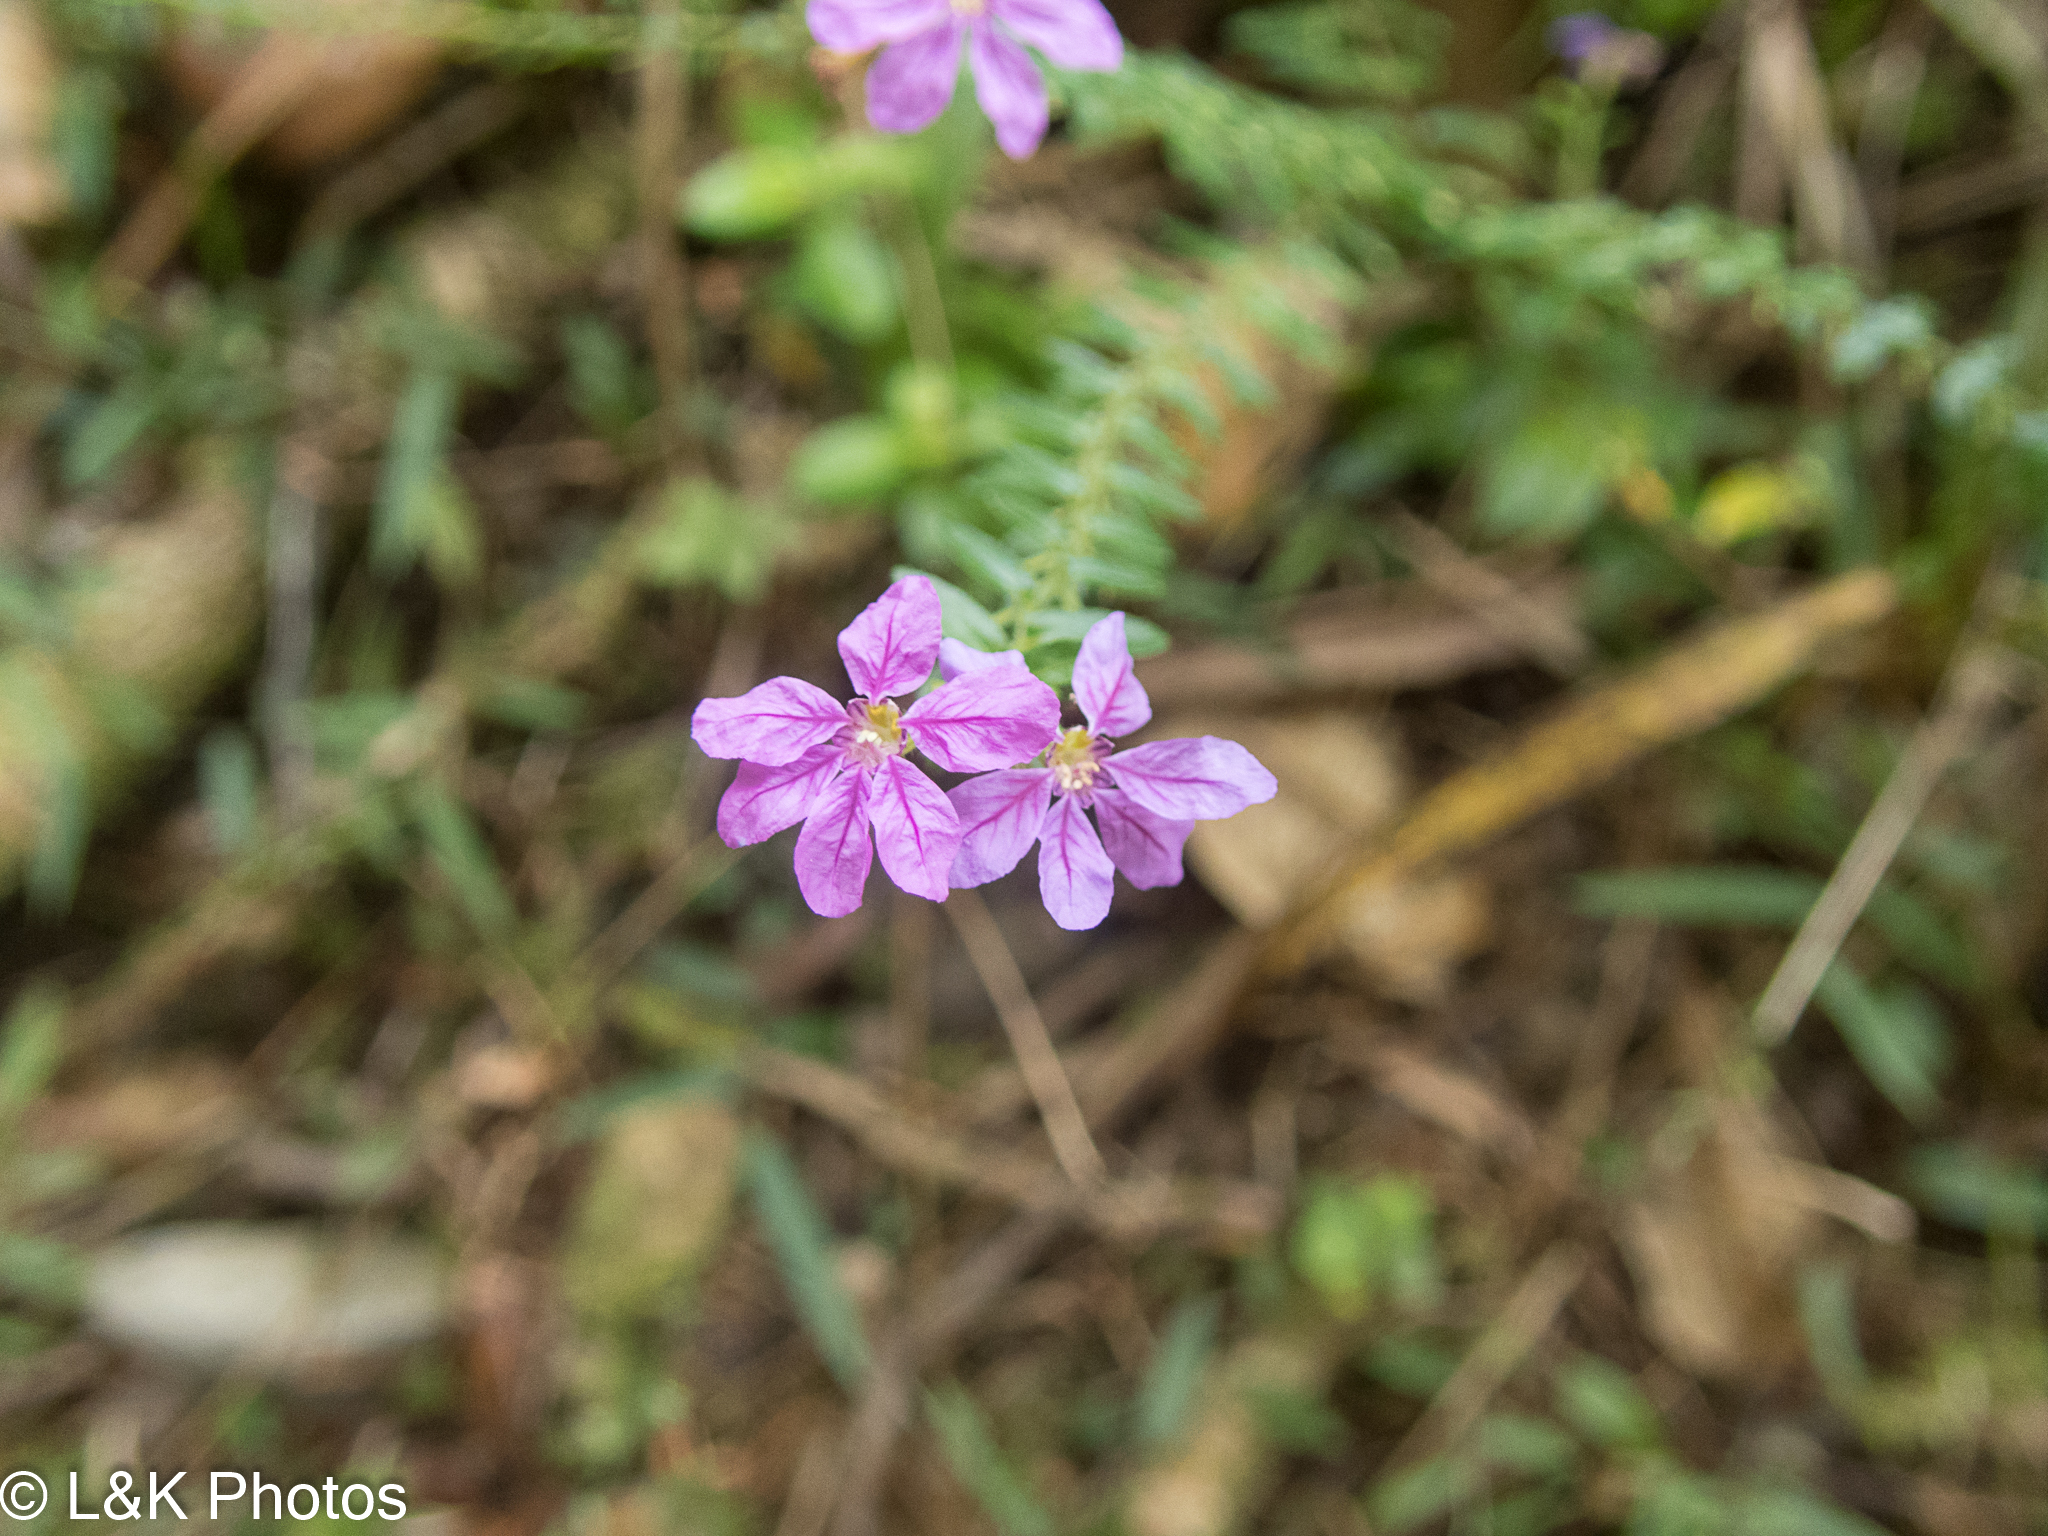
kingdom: Plantae
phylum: Tracheophyta
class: Magnoliopsida
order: Myrtales
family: Lythraceae
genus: Cuphea
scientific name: Cuphea hyssopifolia
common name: False heather
